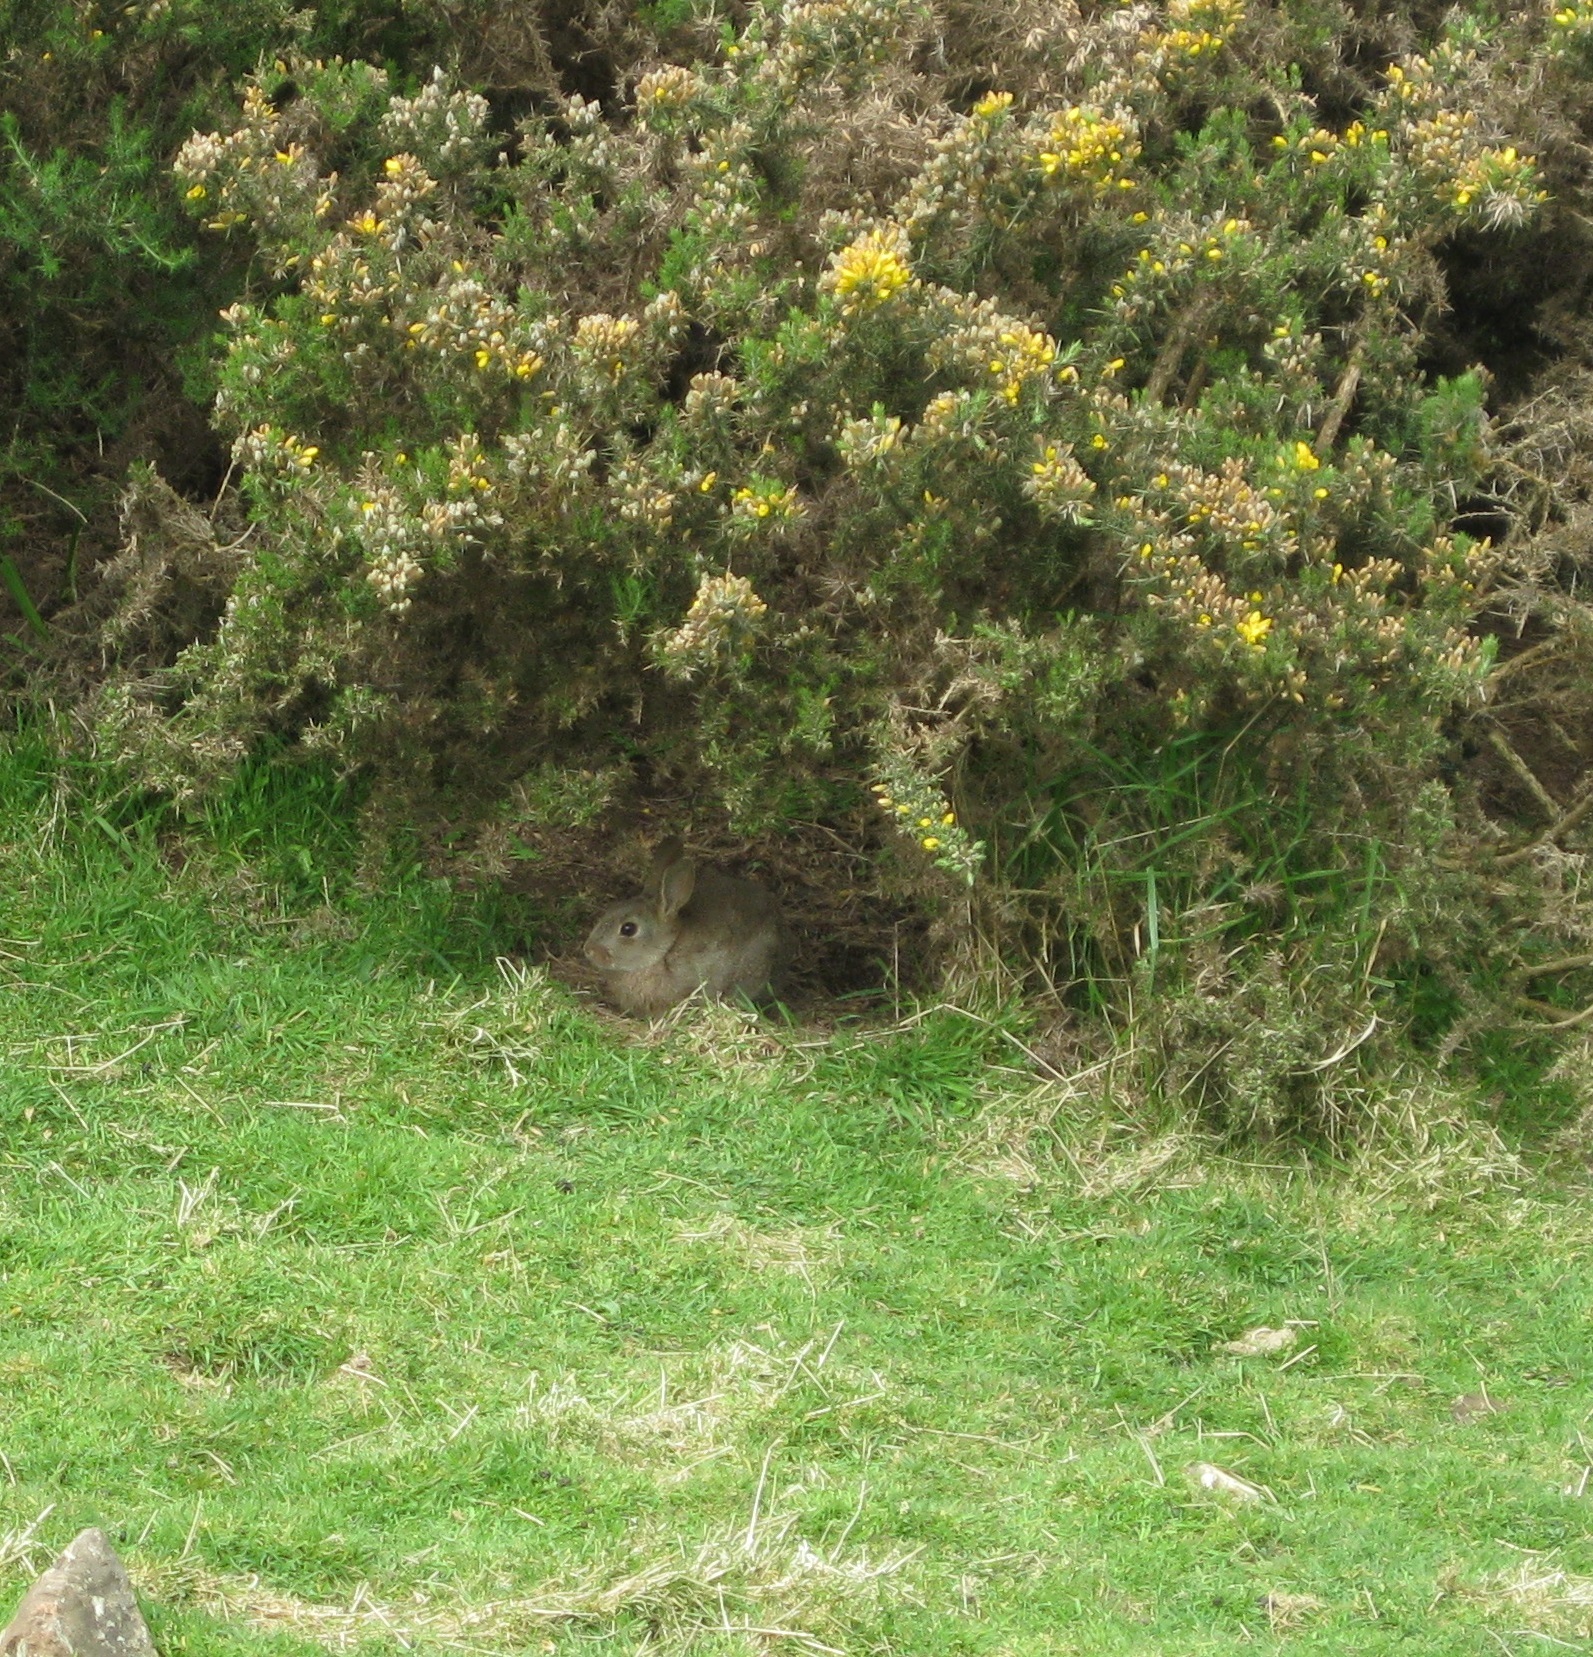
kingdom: Animalia
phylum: Chordata
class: Mammalia
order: Lagomorpha
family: Leporidae
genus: Oryctolagus
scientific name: Oryctolagus cuniculus
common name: European rabbit
